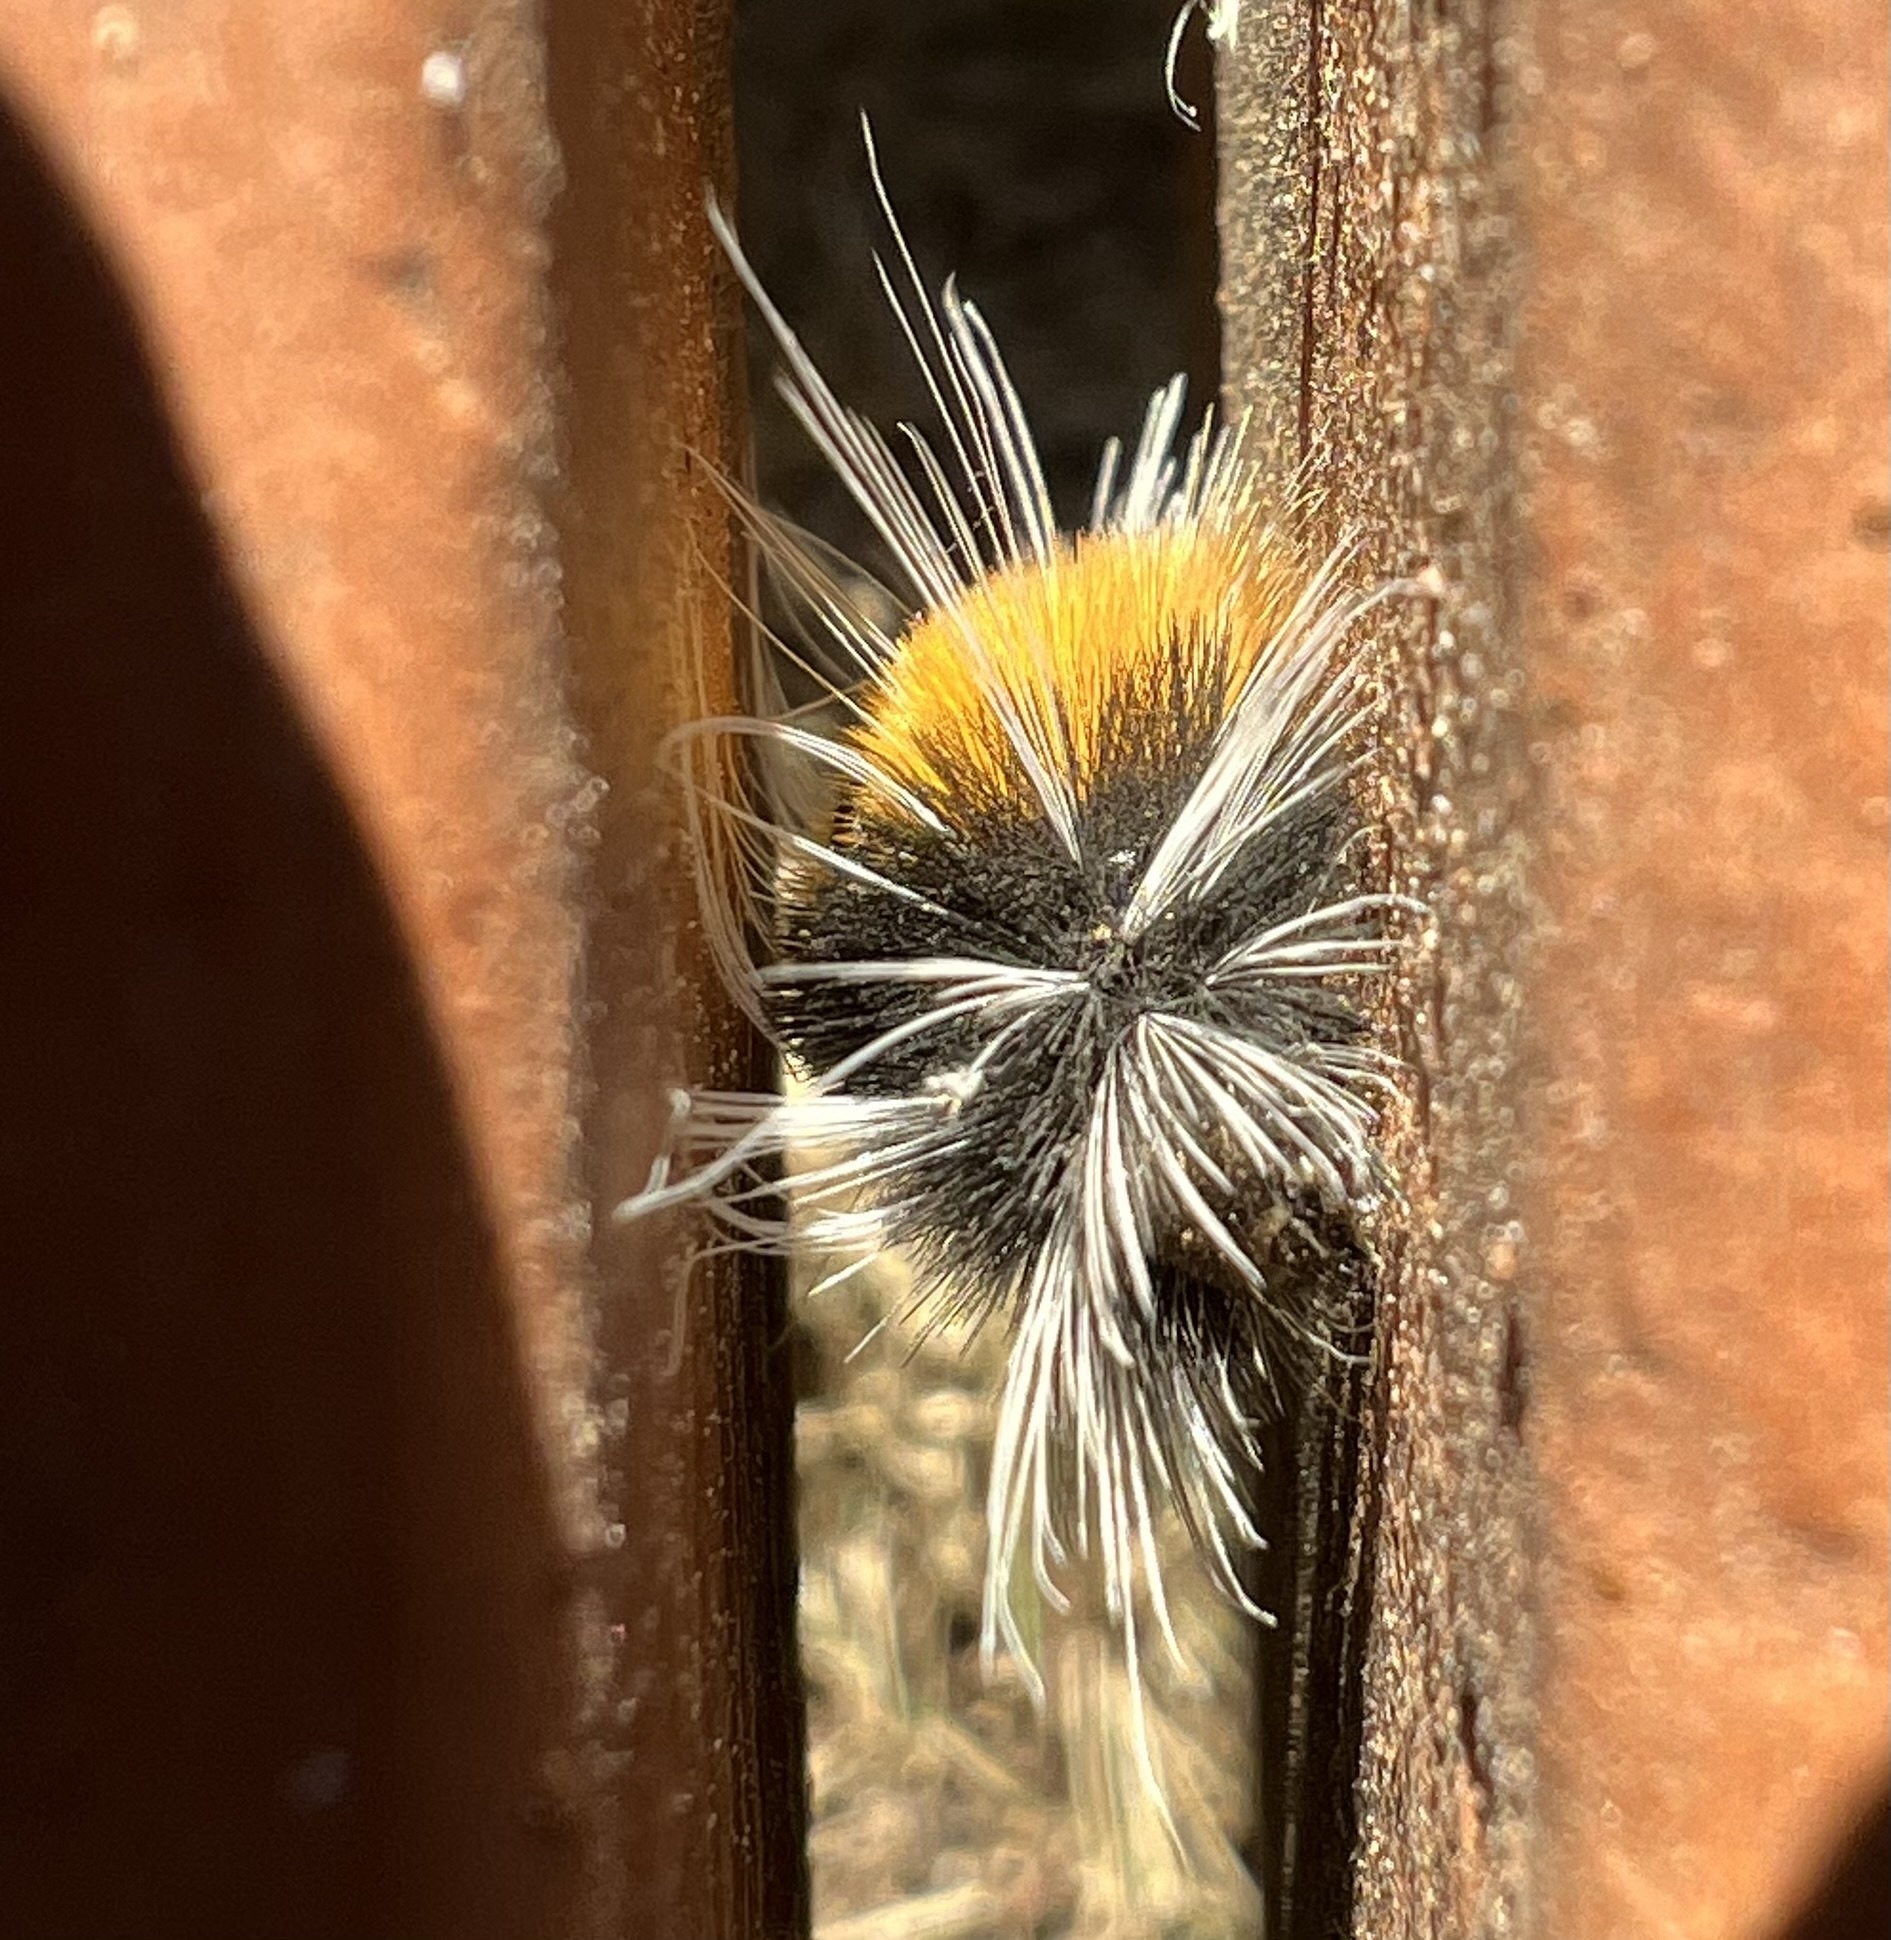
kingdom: Animalia
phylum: Arthropoda
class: Insecta
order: Lepidoptera
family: Erebidae
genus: Lophocampa
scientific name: Lophocampa maculata
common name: Spotted tussock moth
